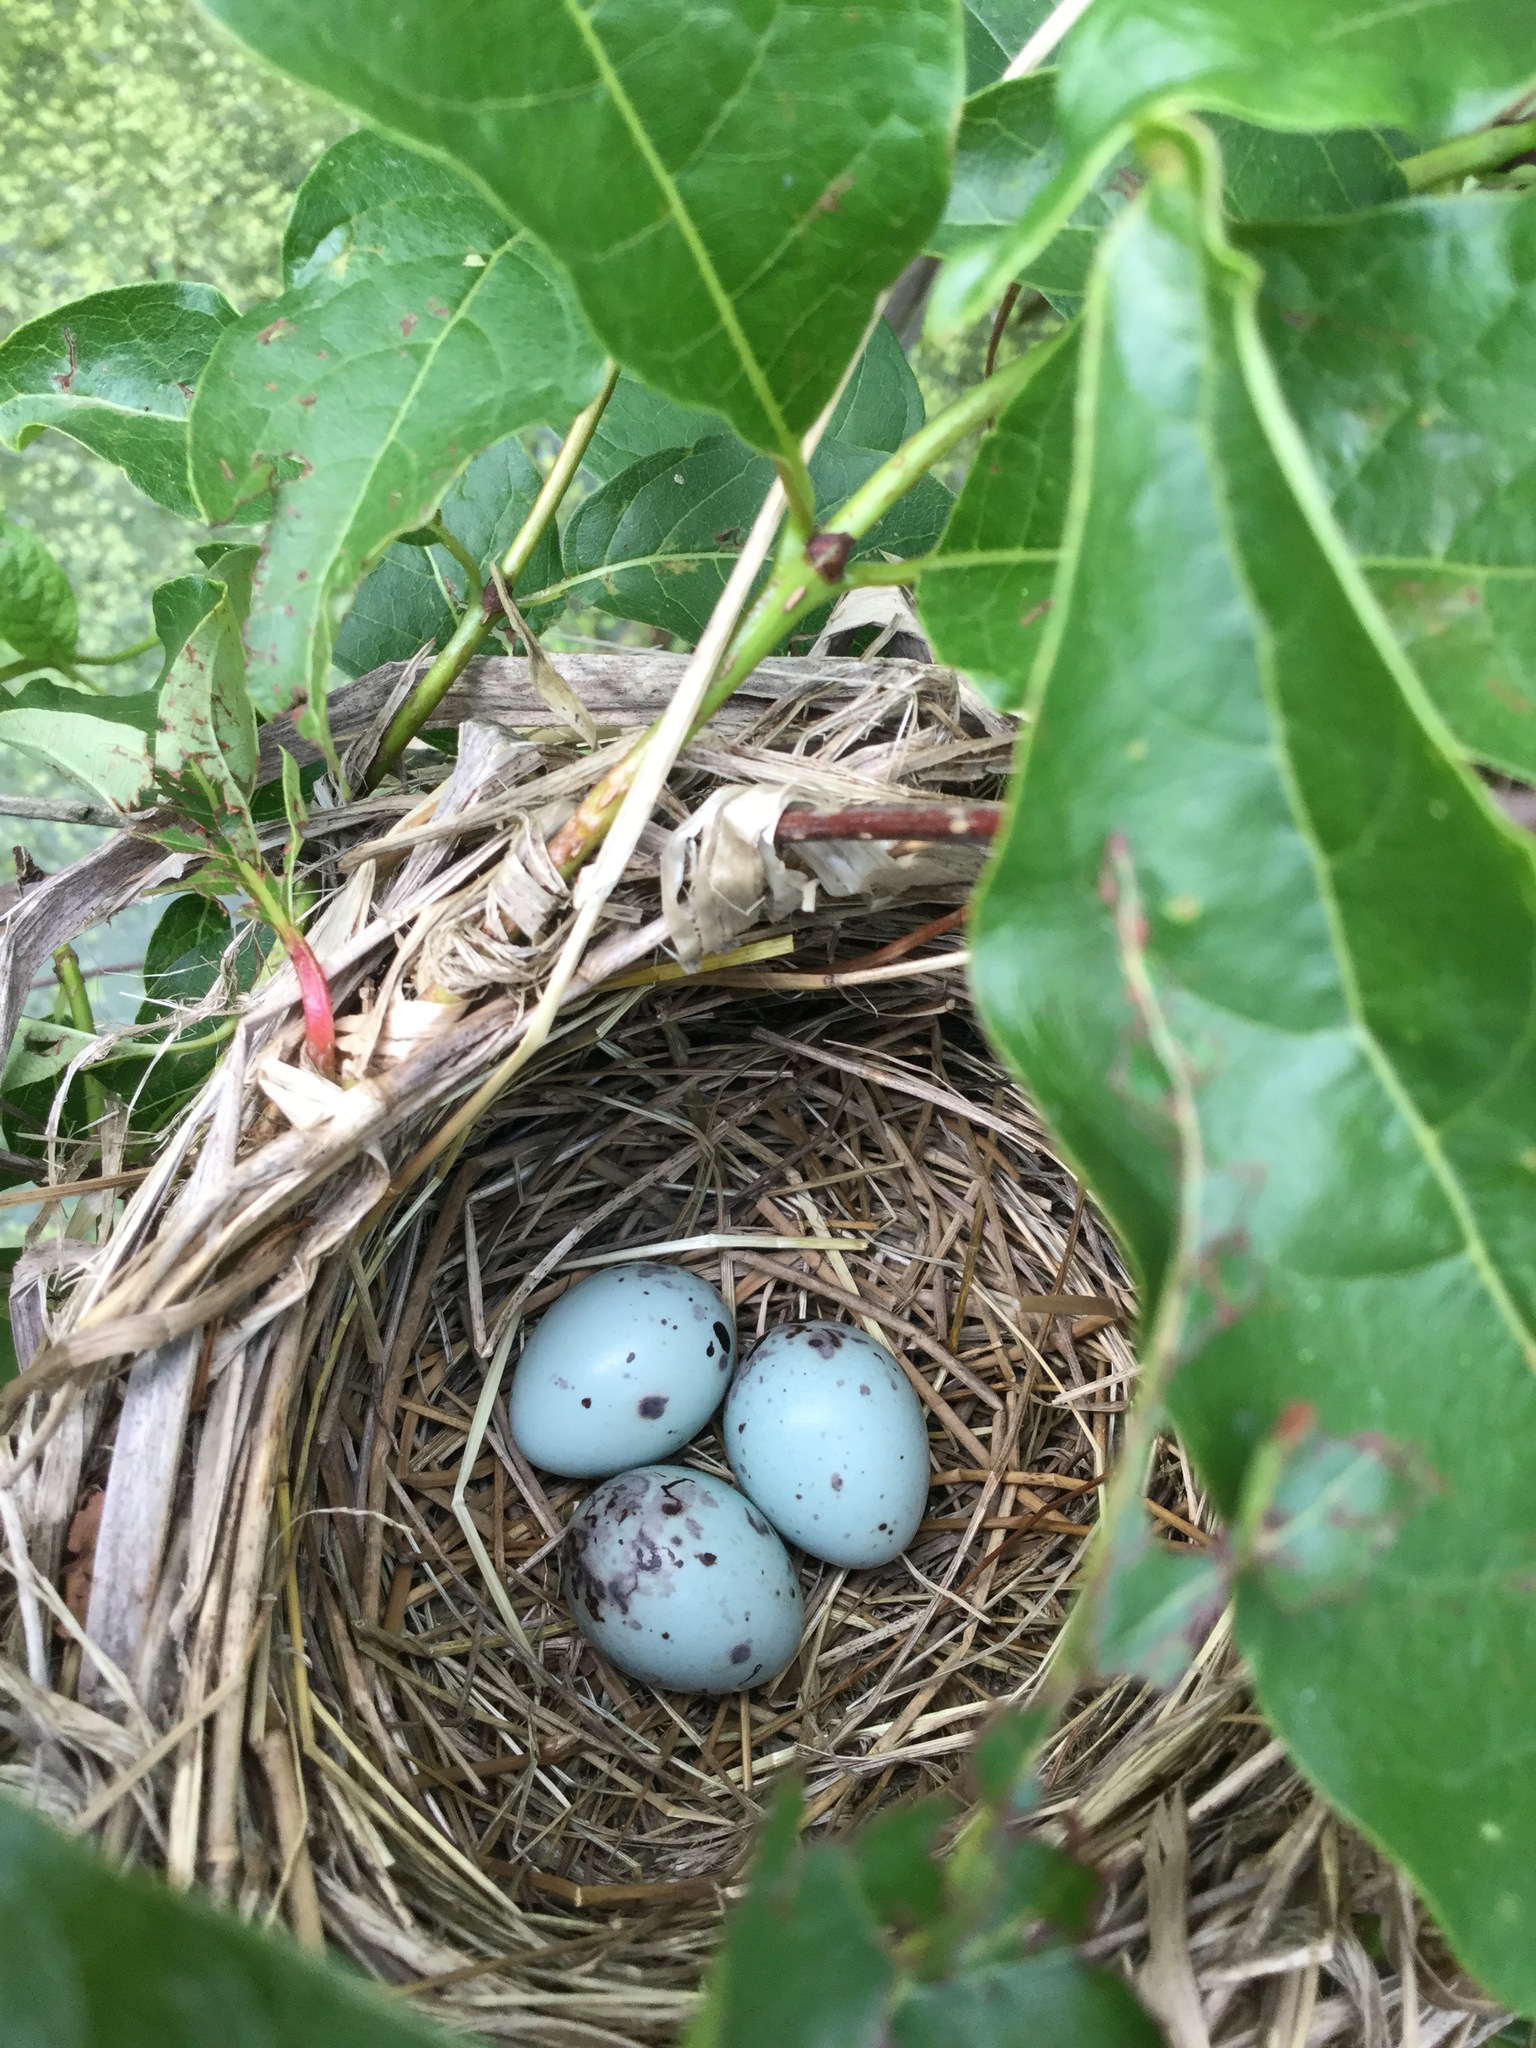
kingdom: Animalia
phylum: Chordata
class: Aves
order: Passeriformes
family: Icteridae
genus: Agelaius
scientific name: Agelaius phoeniceus
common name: Red-winged blackbird
